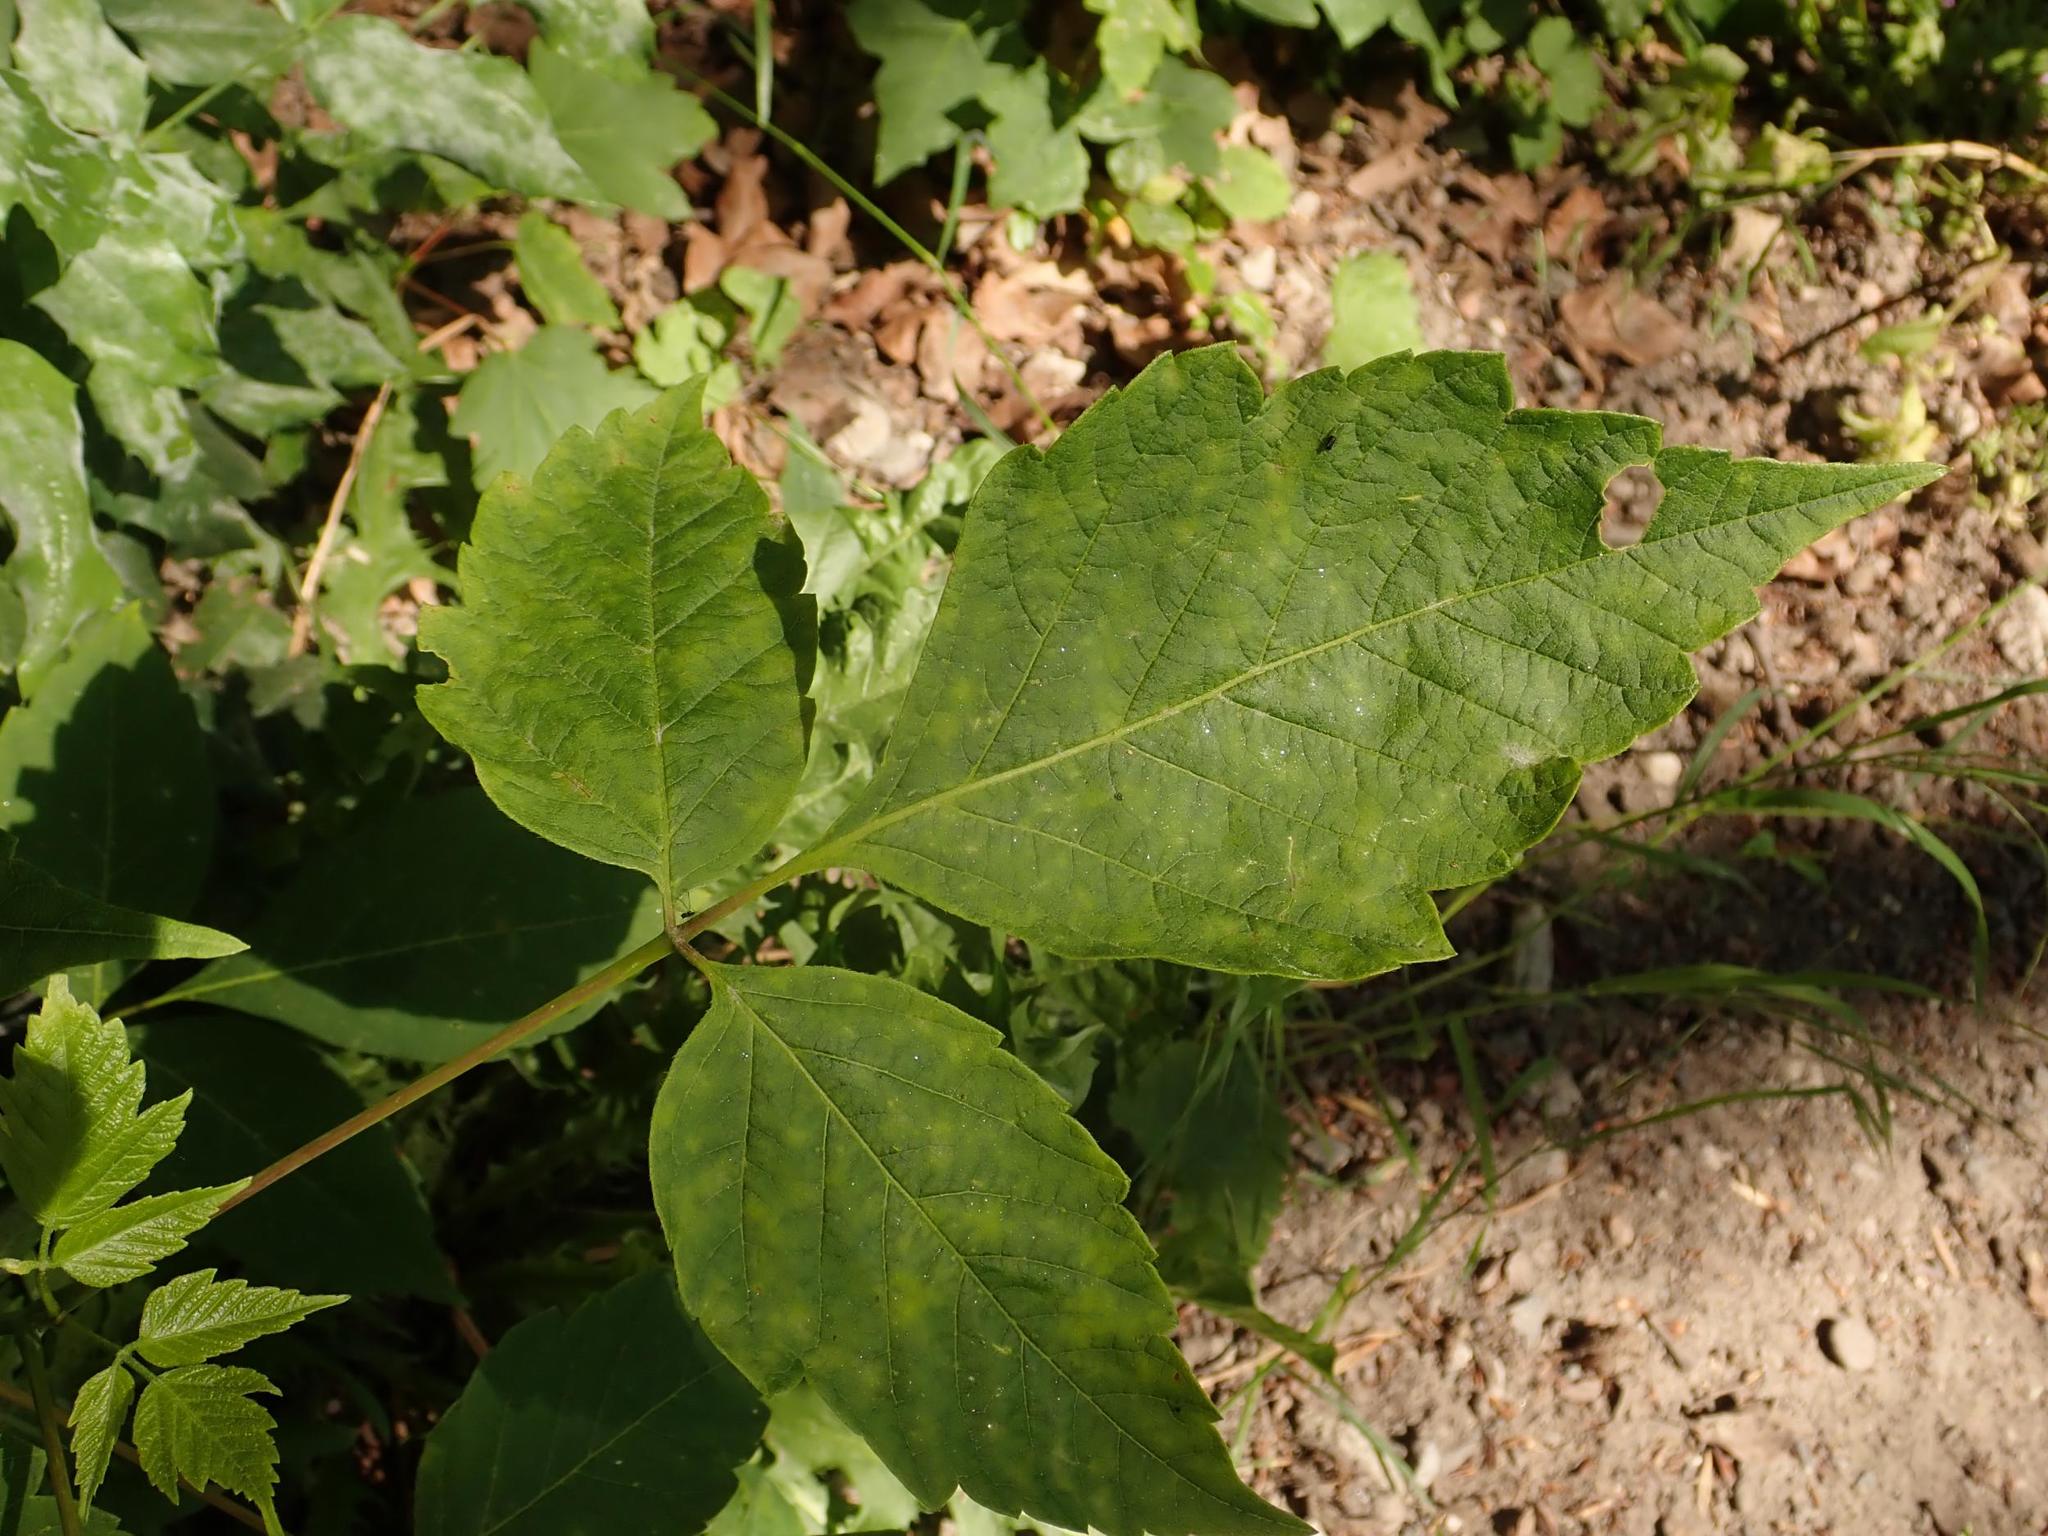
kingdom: Plantae
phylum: Tracheophyta
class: Magnoliopsida
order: Sapindales
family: Sapindaceae
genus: Acer
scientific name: Acer negundo
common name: Ashleaf maple
